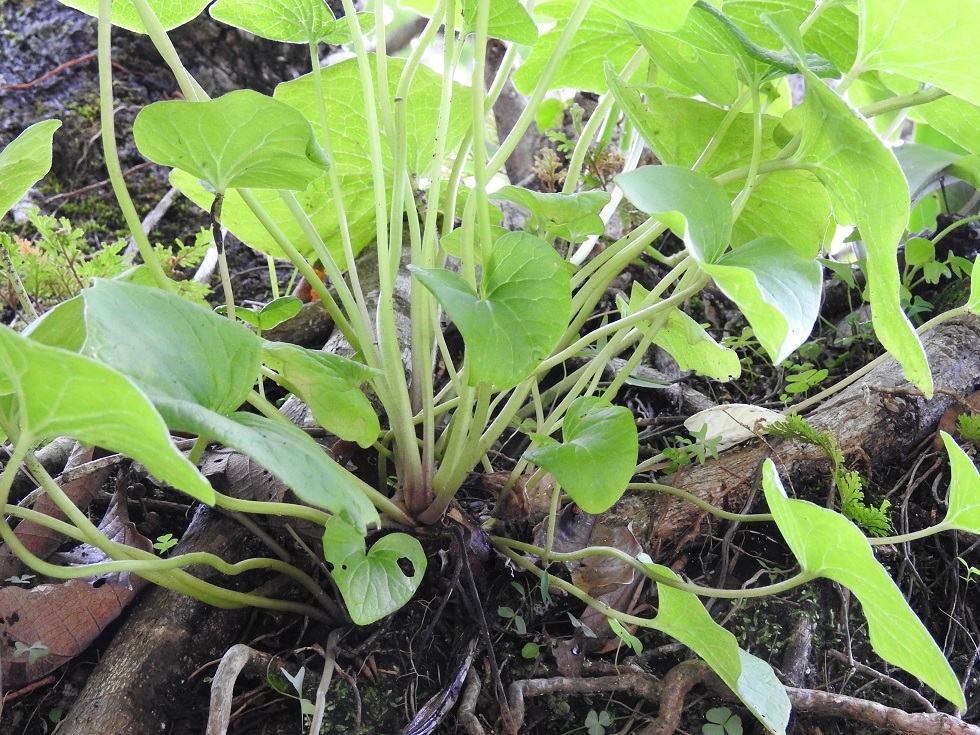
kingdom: Plantae
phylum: Tracheophyta
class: Magnoliopsida
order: Piperales
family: Piperaceae
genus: Peperomia
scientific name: Peperomia lanceolatopeltata
